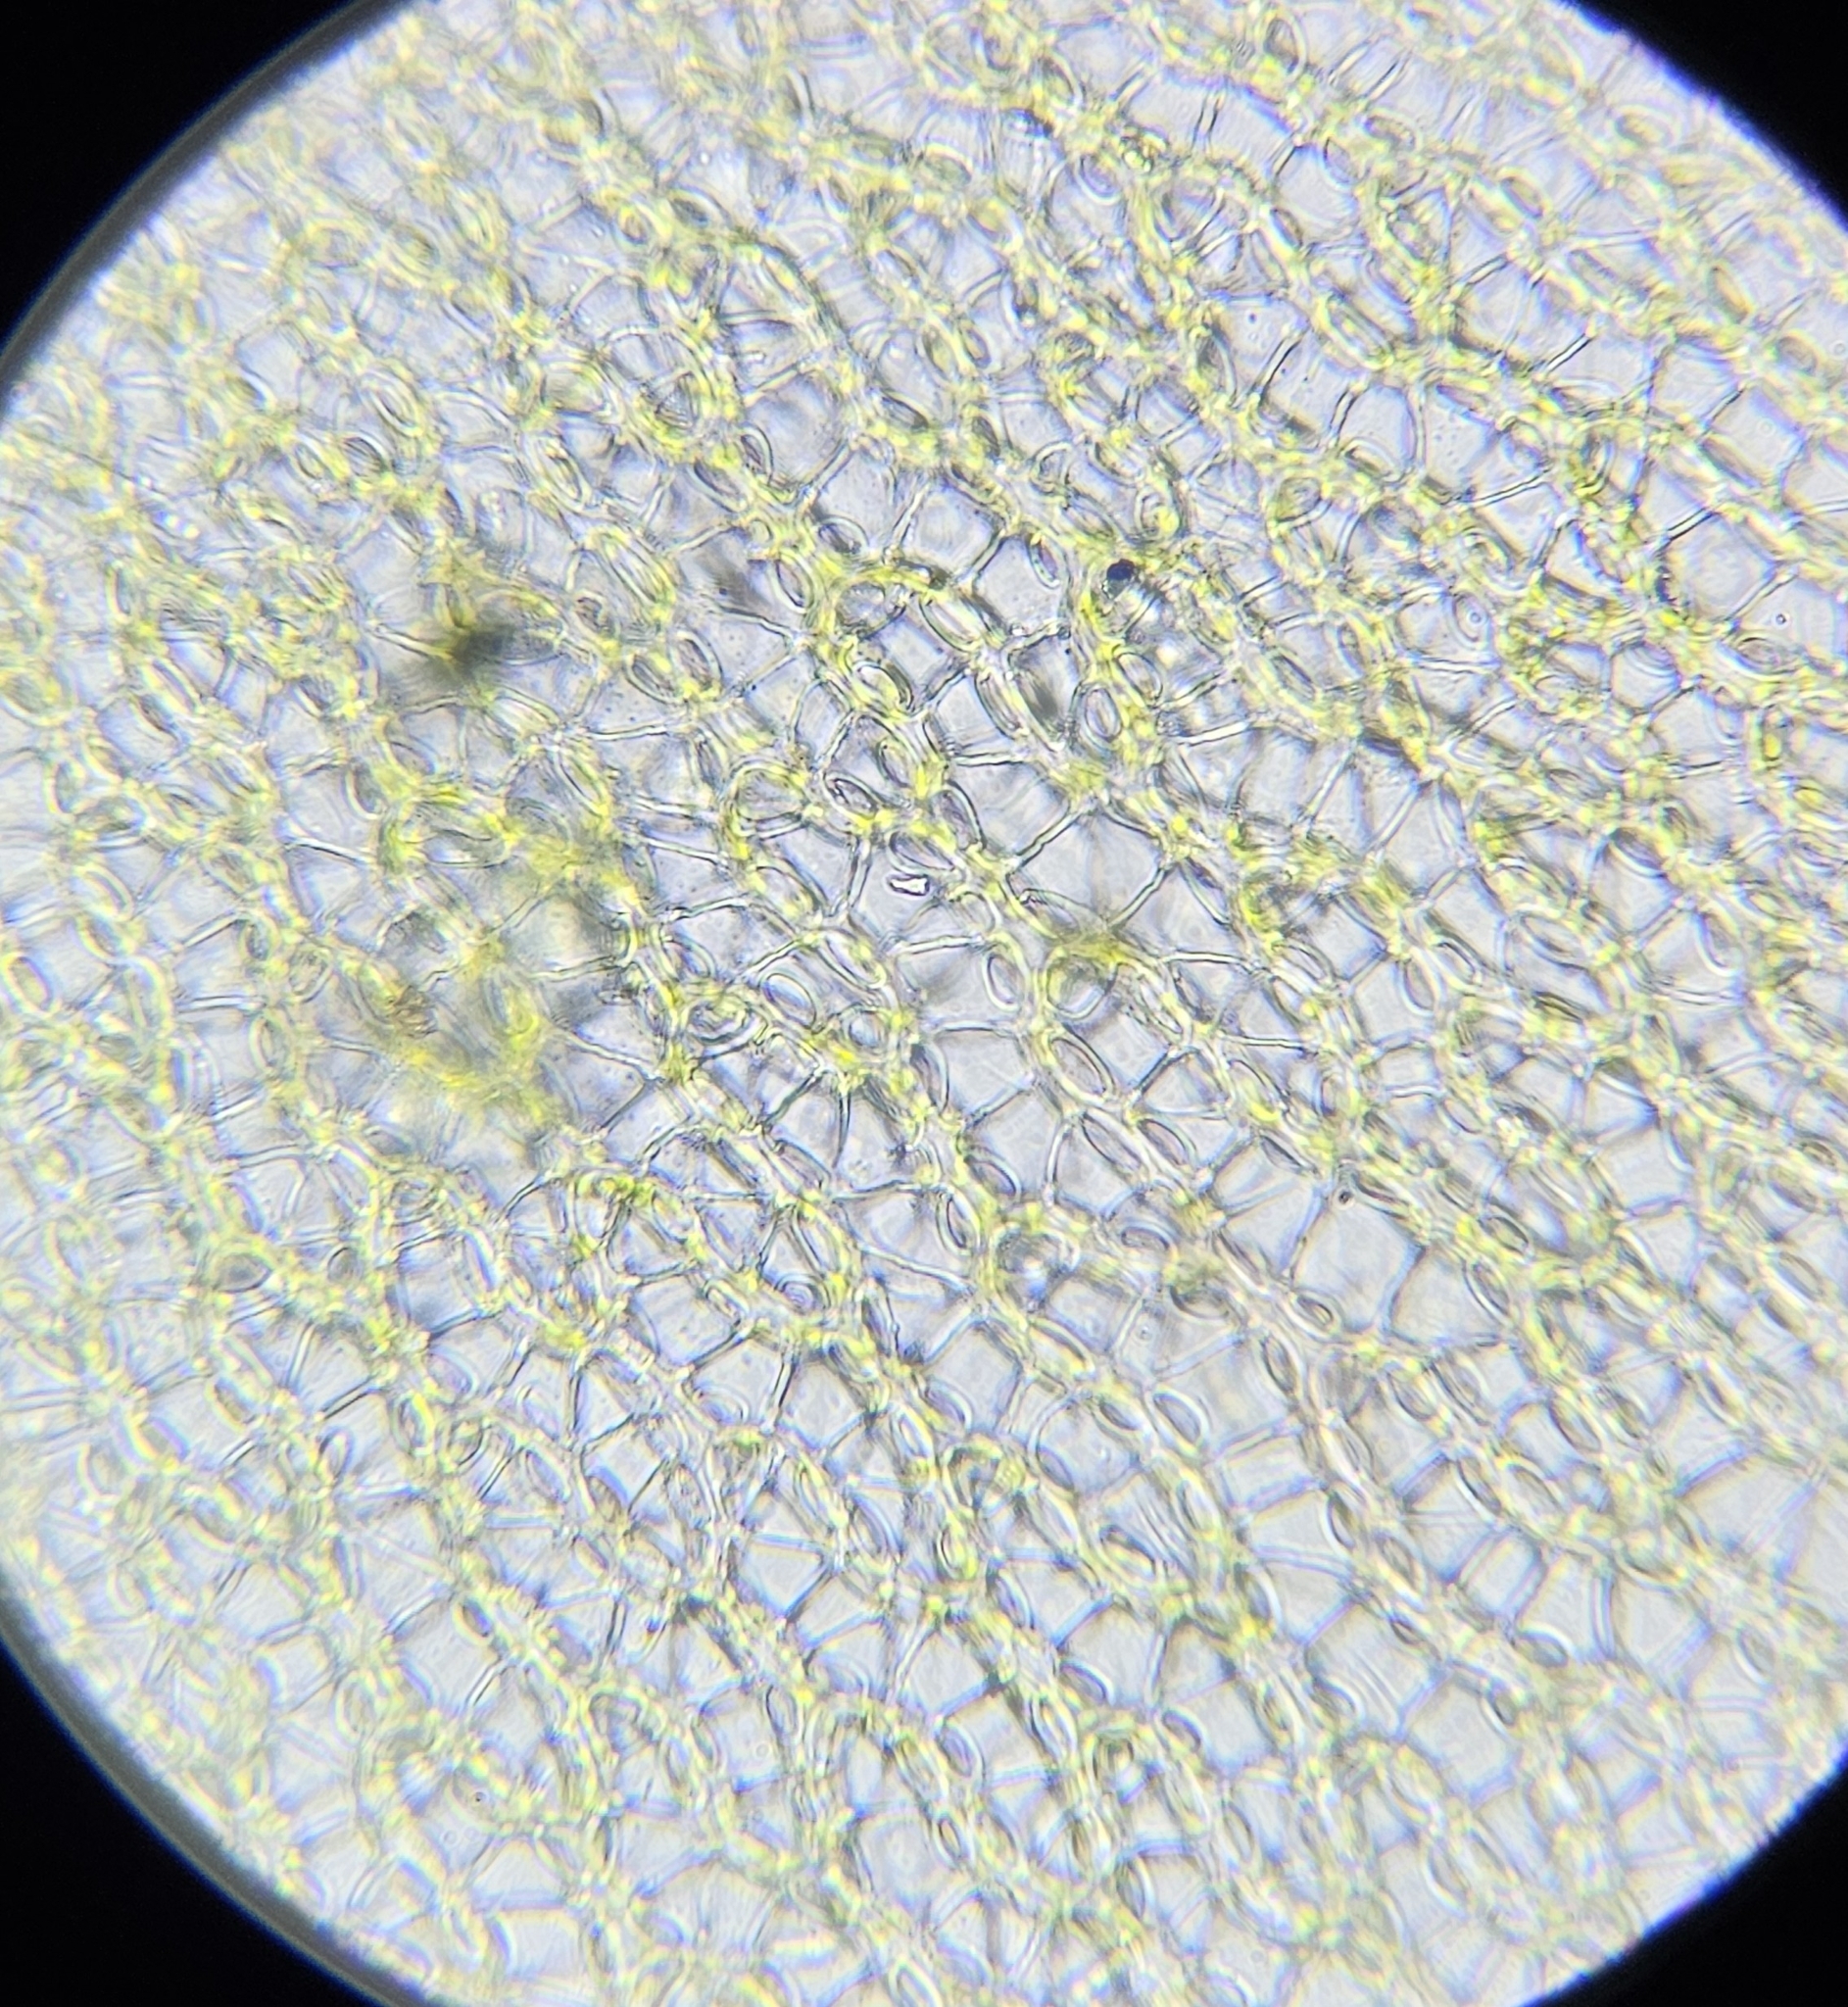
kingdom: Plantae
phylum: Bryophyta
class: Sphagnopsida
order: Sphagnales
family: Sphagnaceae
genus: Sphagnum
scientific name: Sphagnum russowii
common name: Russow's peat moss
